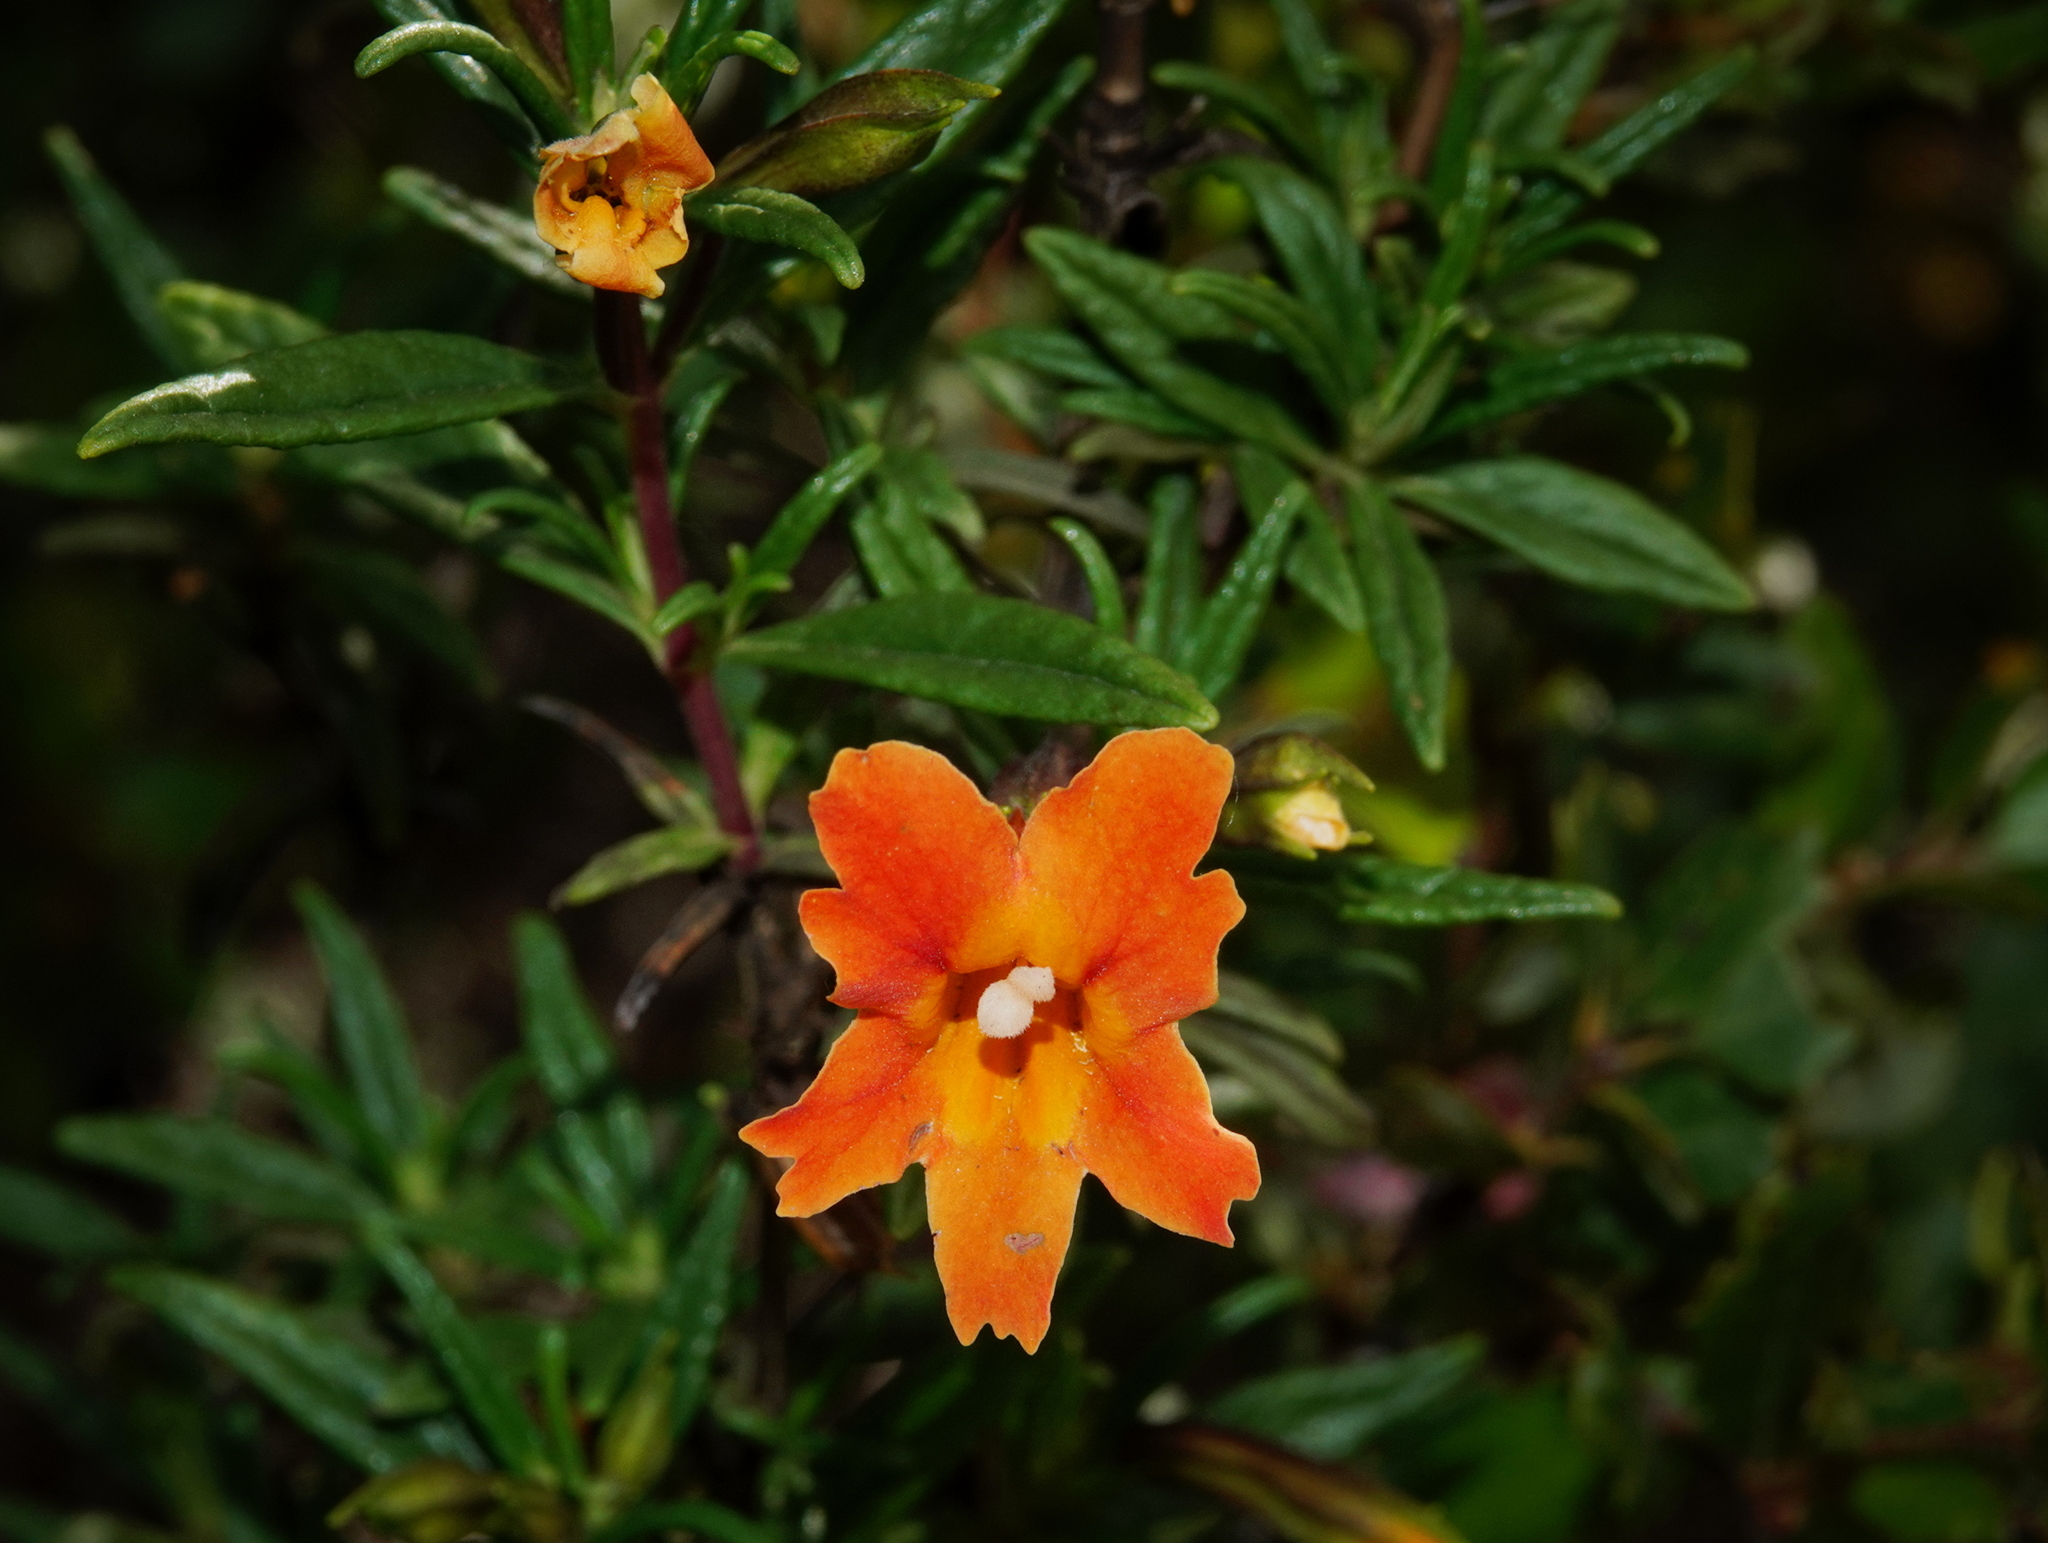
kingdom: Plantae
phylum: Tracheophyta
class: Magnoliopsida
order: Lamiales
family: Phrymaceae
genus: Diplacus
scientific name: Diplacus australis
